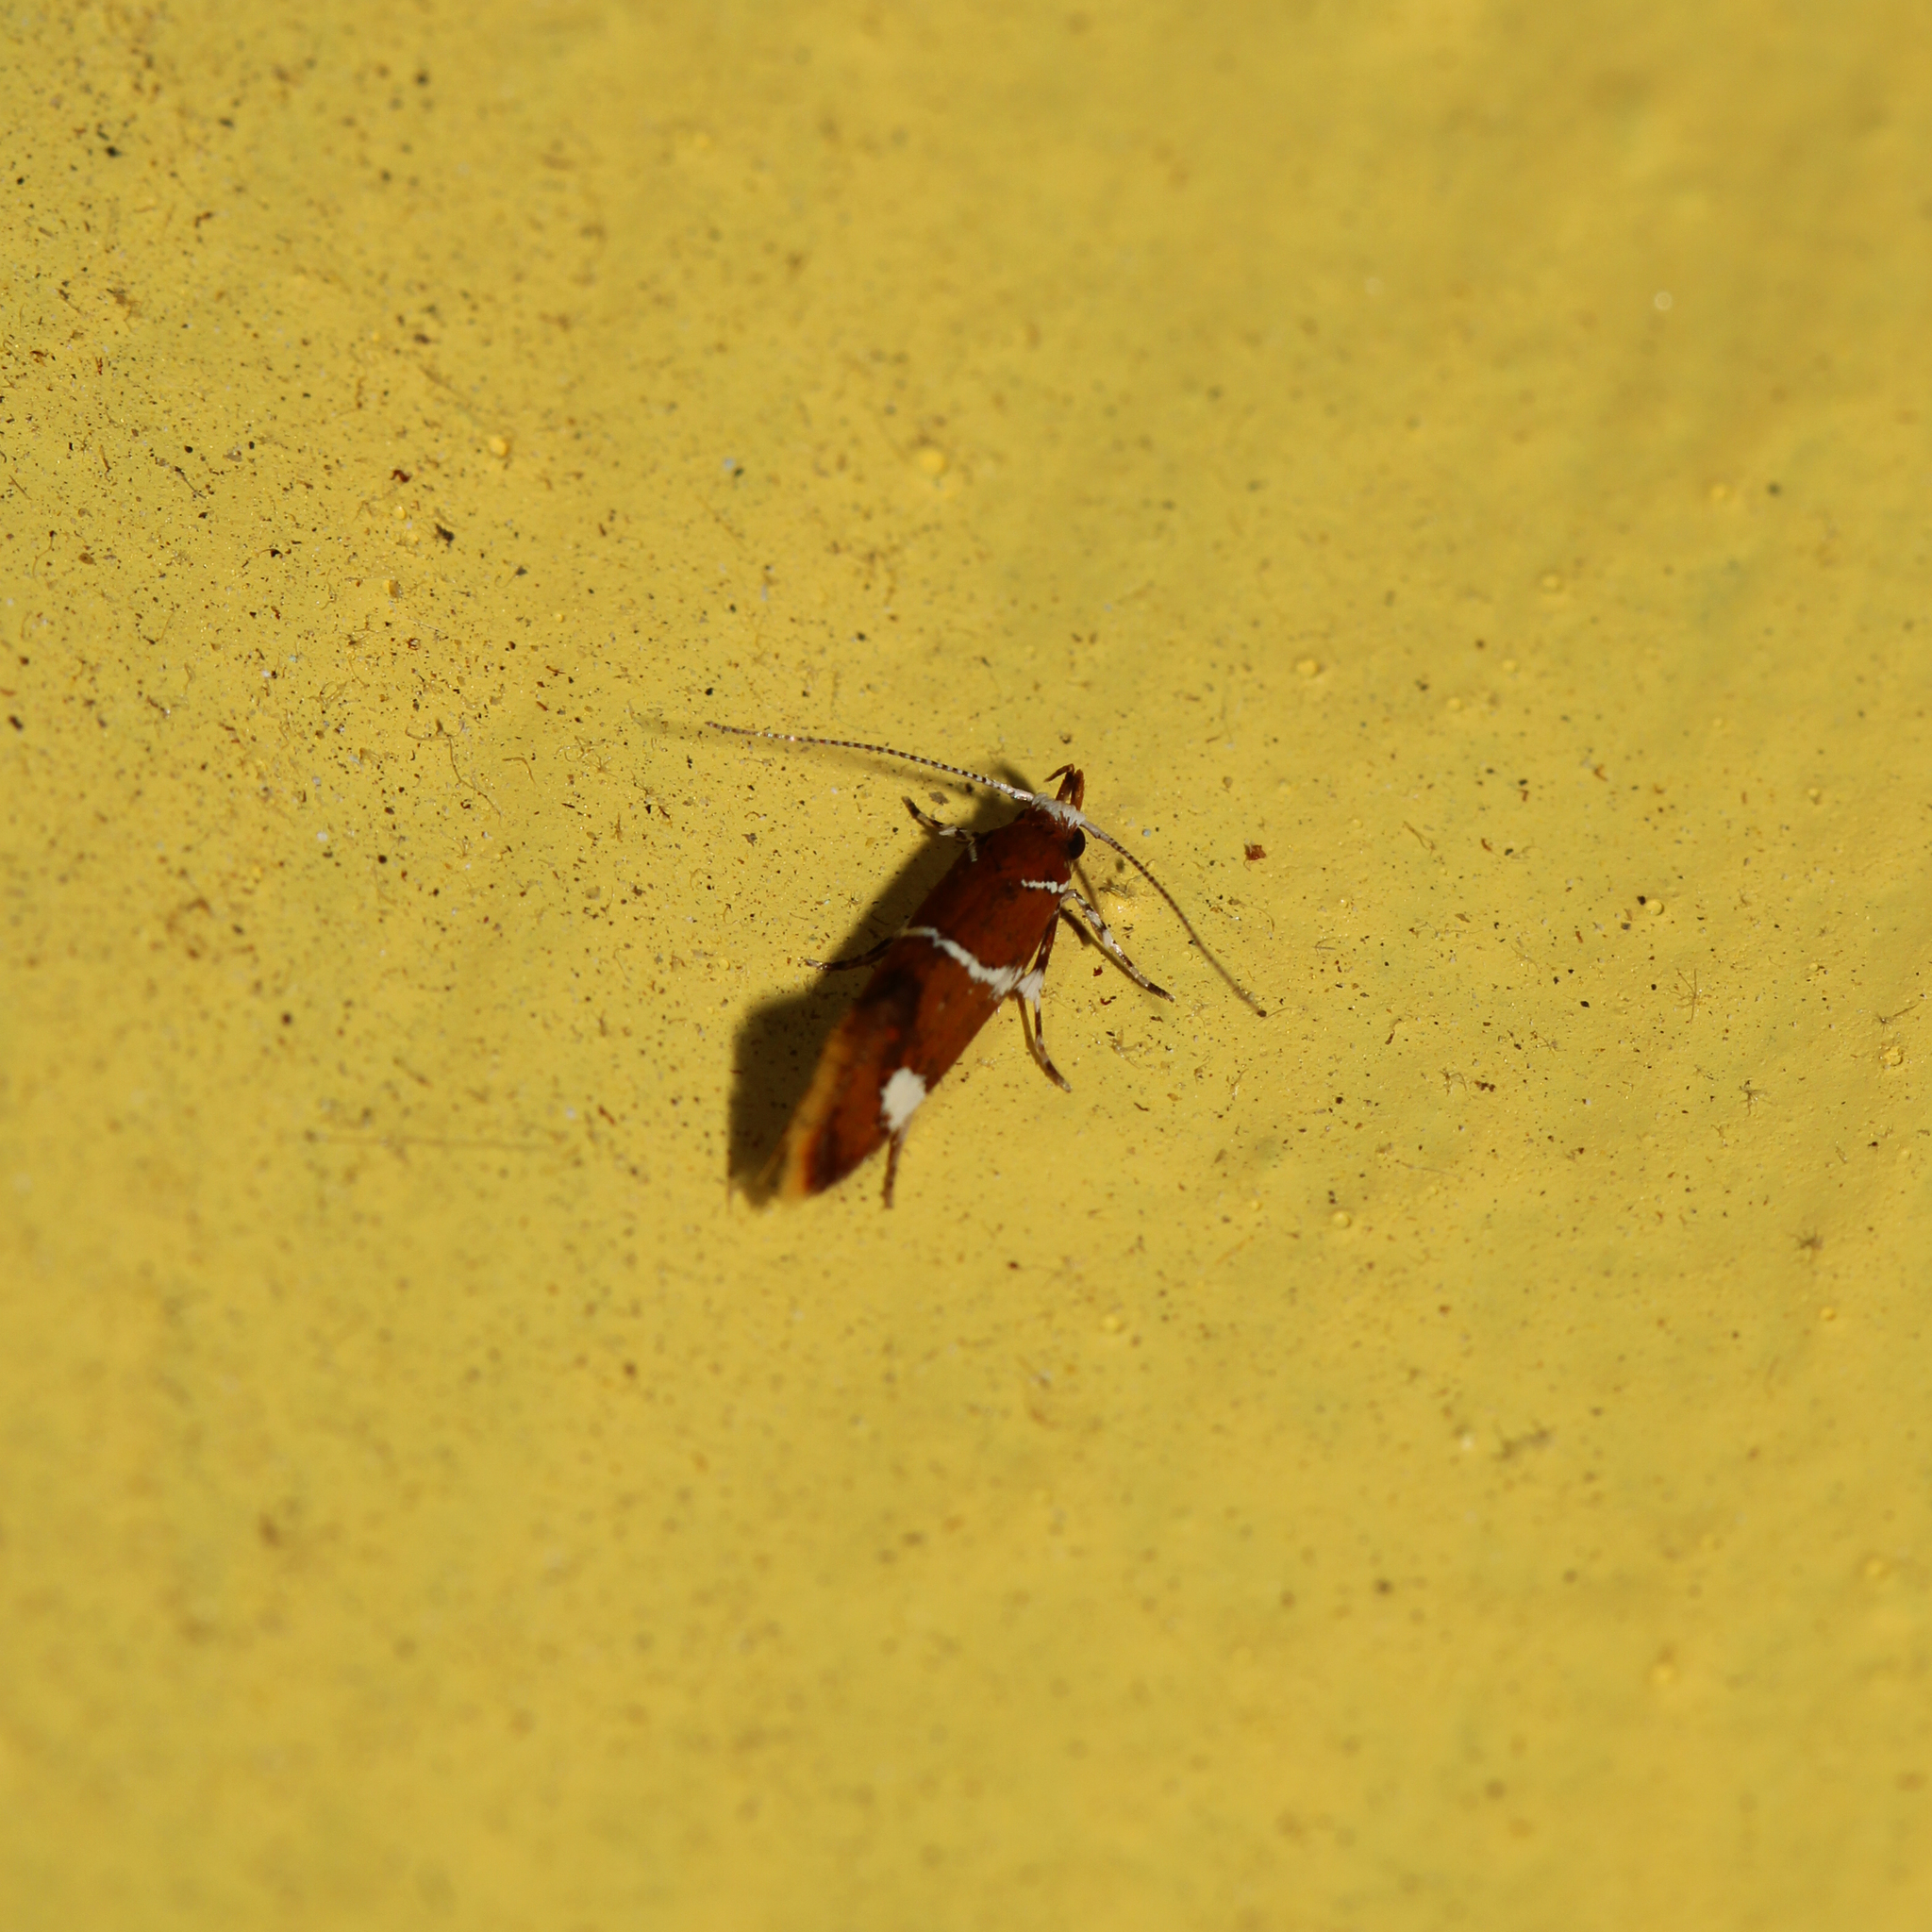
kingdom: Animalia
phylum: Arthropoda
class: Insecta
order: Lepidoptera
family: Oecophoridae
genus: Promalactis
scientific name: Promalactis suzukiella
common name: Moth
